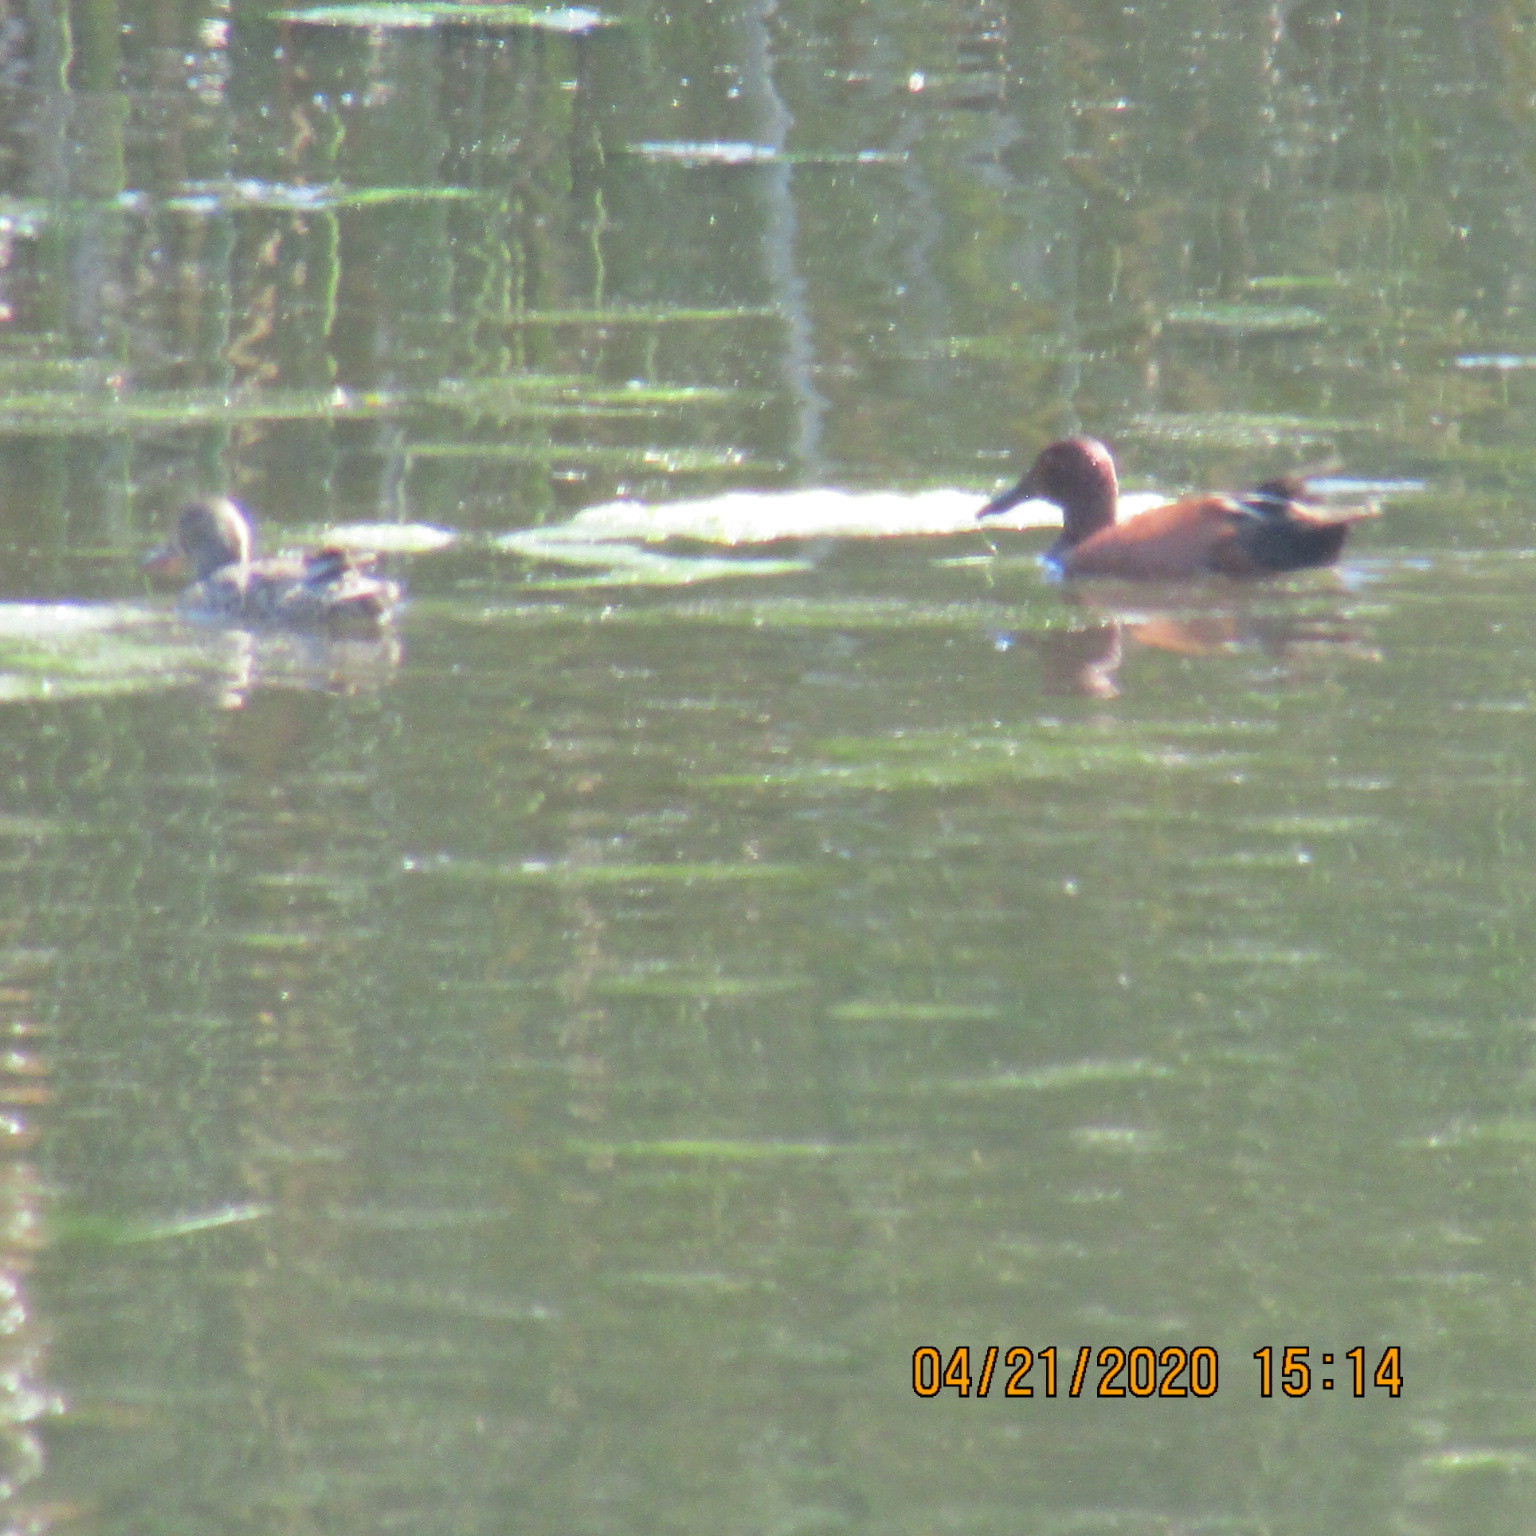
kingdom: Animalia
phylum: Chordata
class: Aves
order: Anseriformes
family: Anatidae
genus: Spatula
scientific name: Spatula cyanoptera
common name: Cinnamon teal
